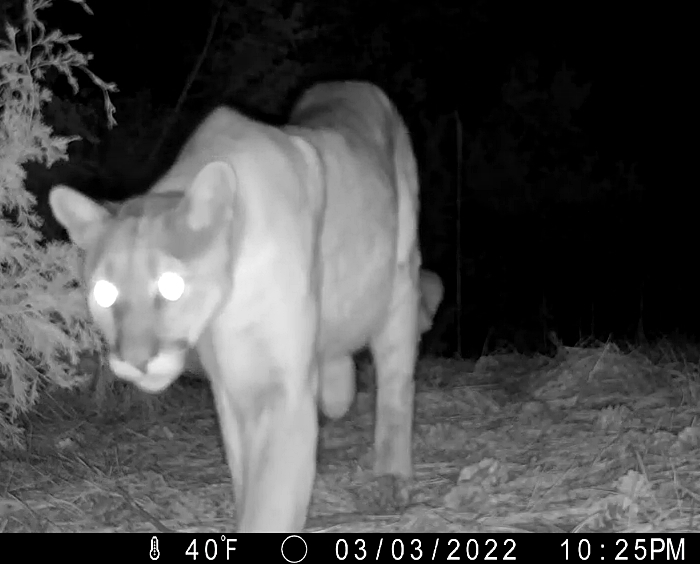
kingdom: Animalia
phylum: Chordata
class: Mammalia
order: Carnivora
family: Felidae
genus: Puma
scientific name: Puma concolor
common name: Puma
